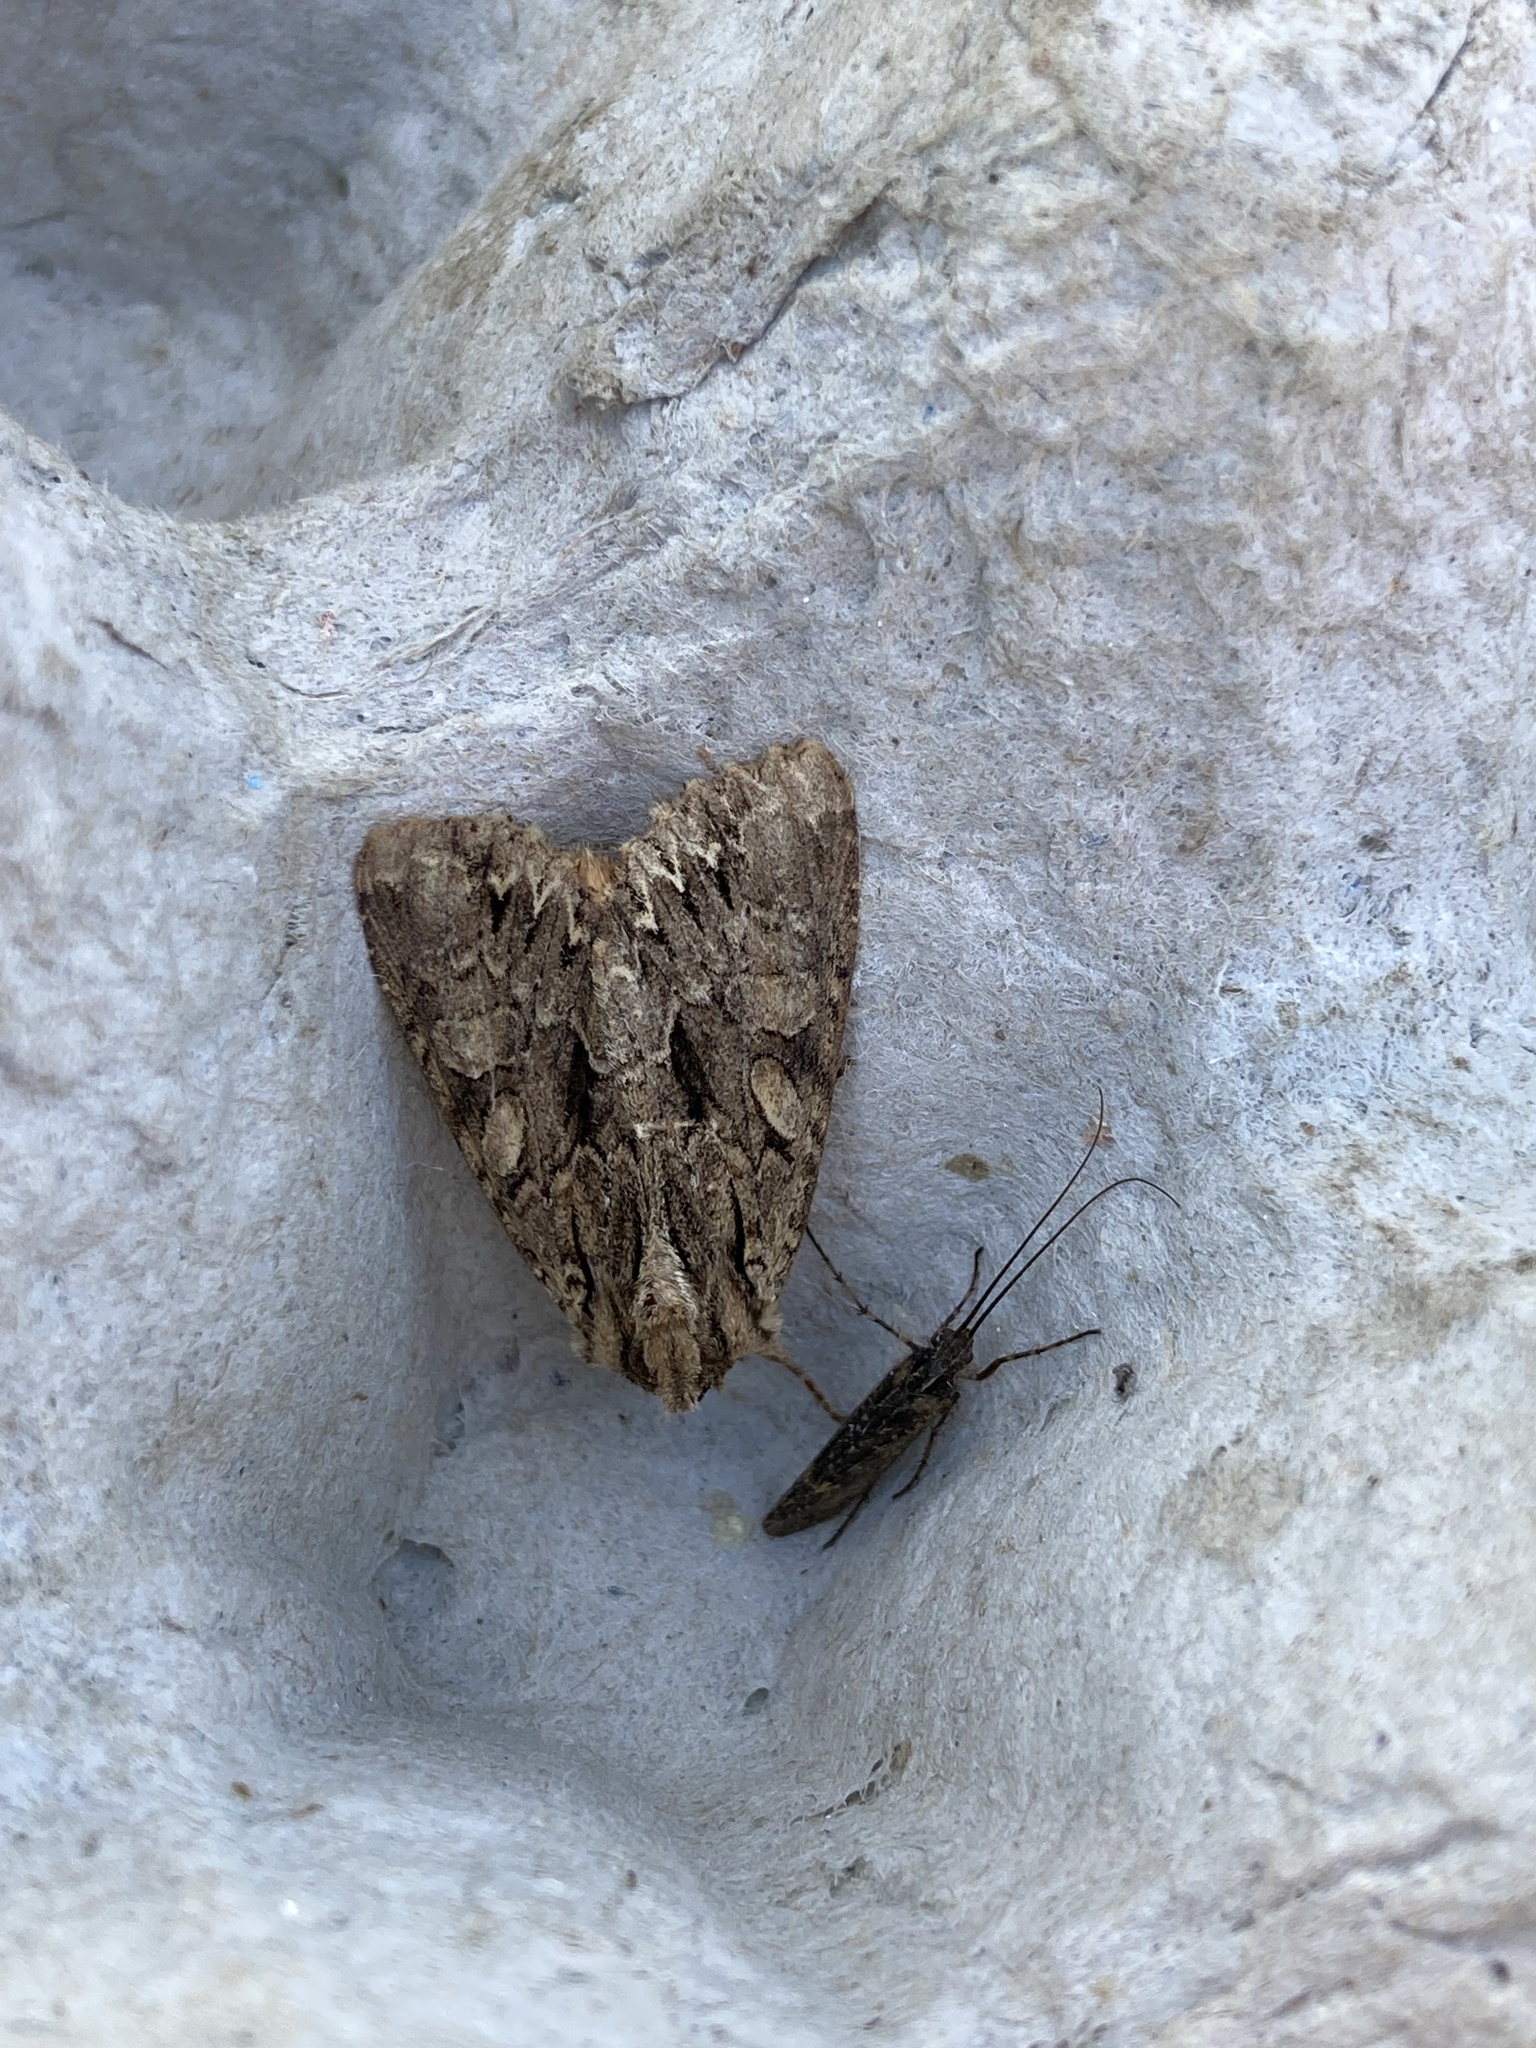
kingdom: Animalia
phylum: Arthropoda
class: Insecta
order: Lepidoptera
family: Noctuidae
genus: Apamea
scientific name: Apamea monoglypha
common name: Dark arches
